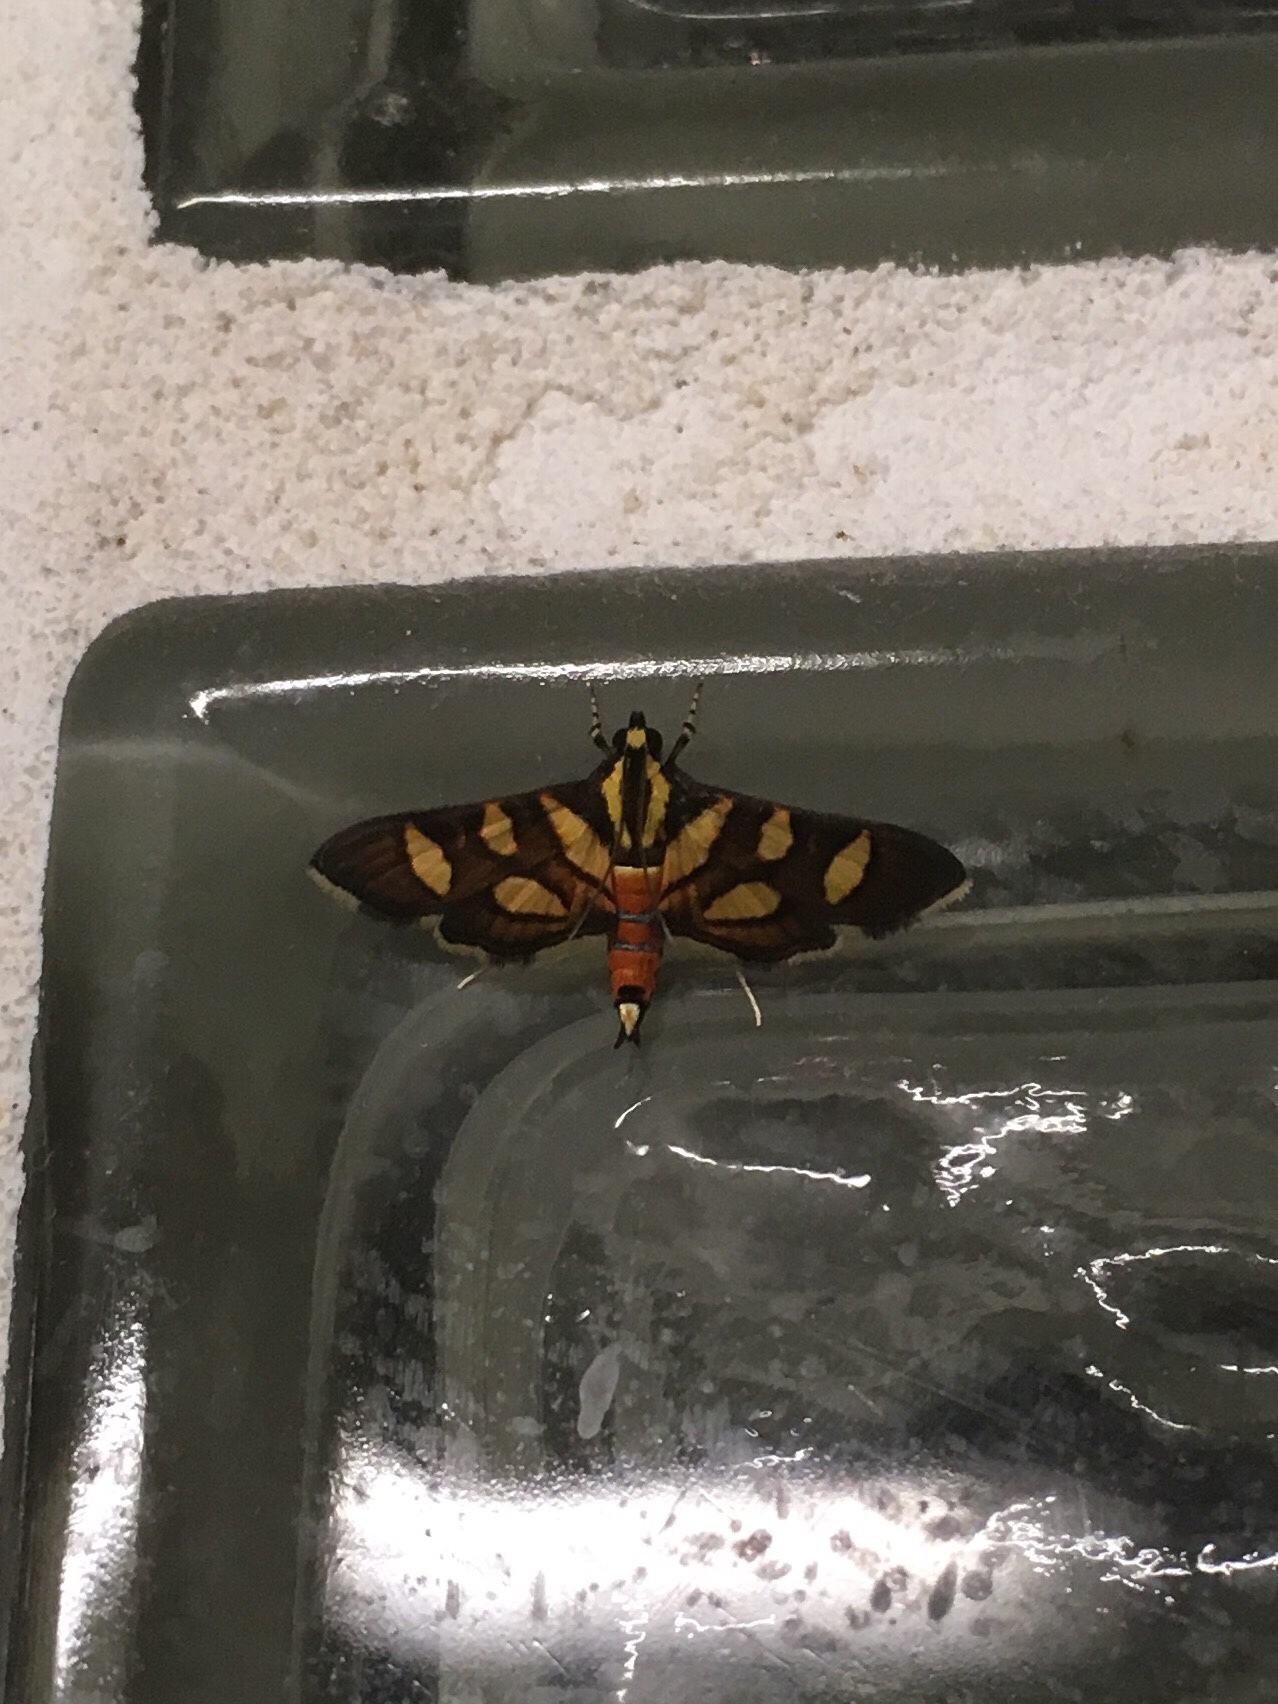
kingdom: Animalia
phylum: Arthropoda
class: Insecta
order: Lepidoptera
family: Crambidae
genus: Syngamia
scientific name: Syngamia florella
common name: Orange-spotted flower moth
